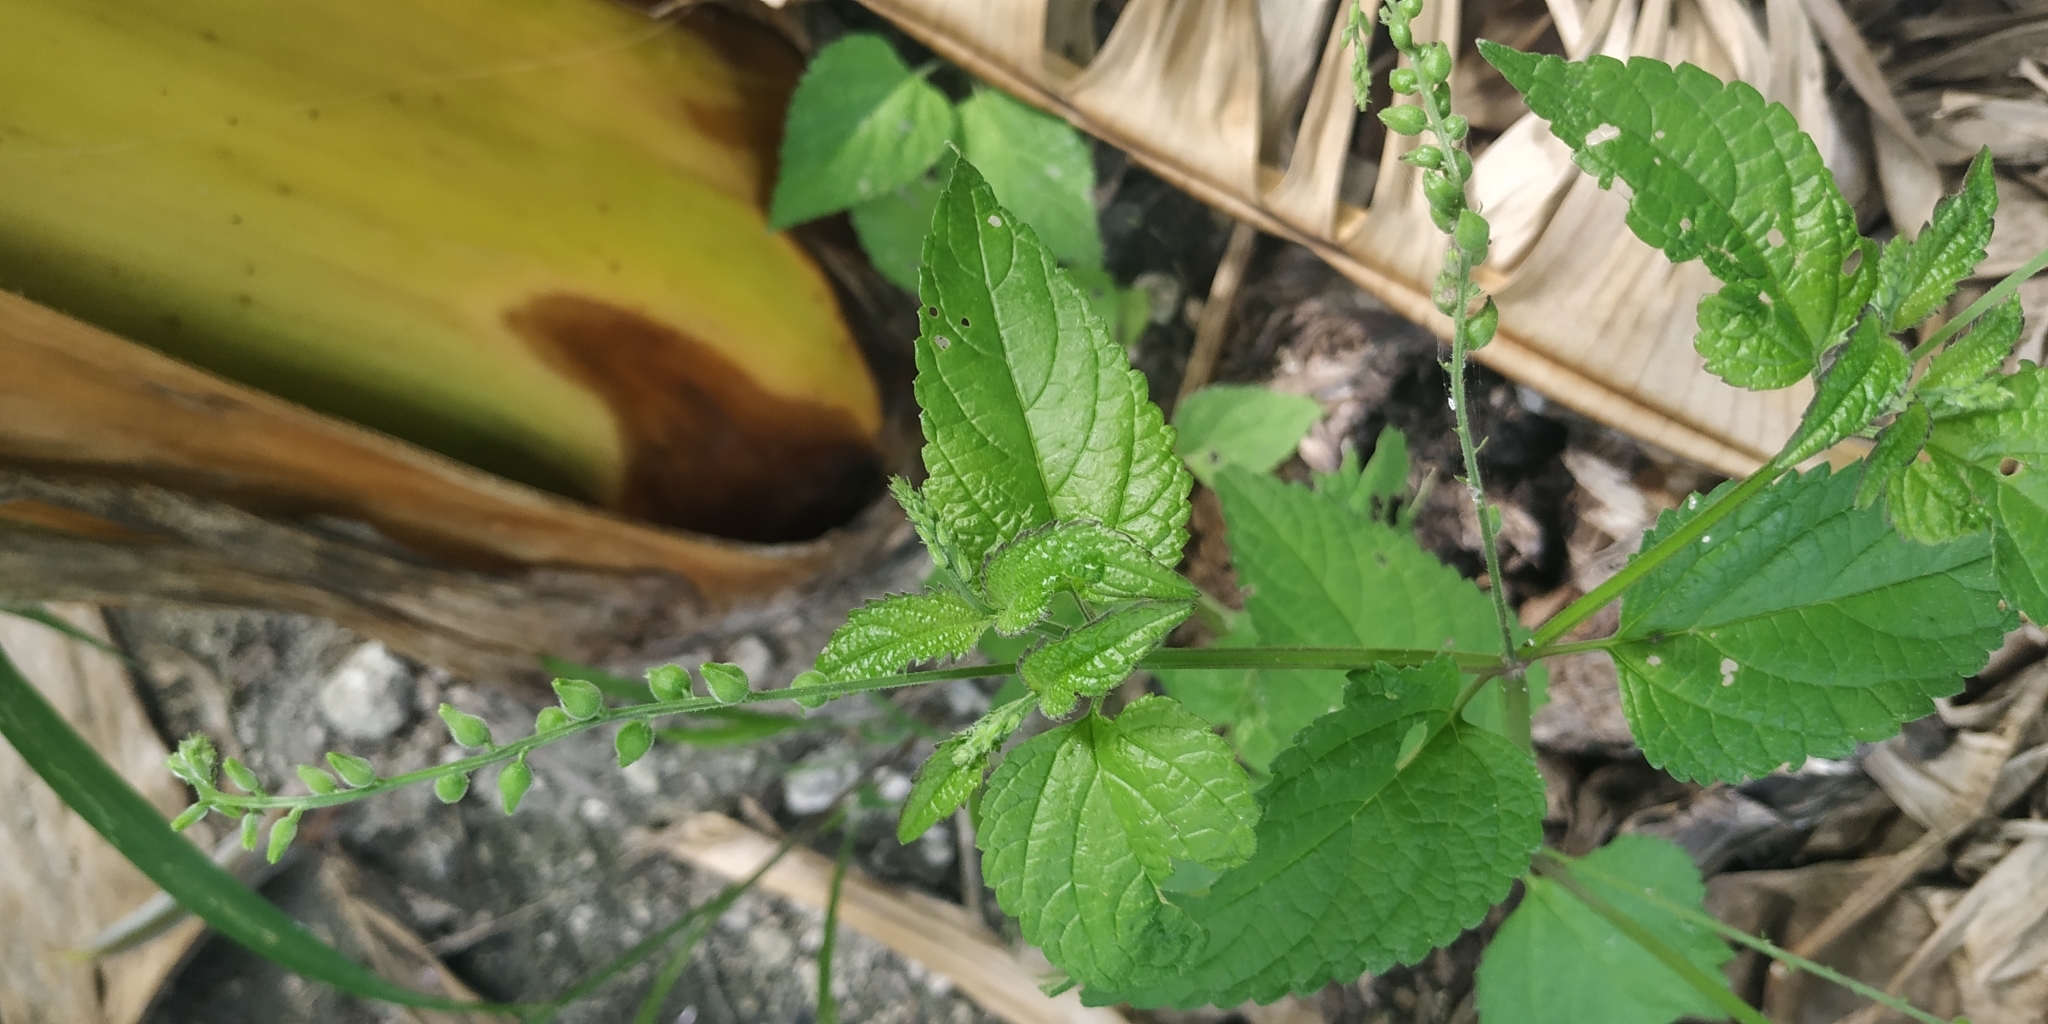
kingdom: Plantae
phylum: Tracheophyta
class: Magnoliopsida
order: Lamiales
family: Verbenaceae
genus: Priva
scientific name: Priva lappulacea
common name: Fasten-'pon-coat
